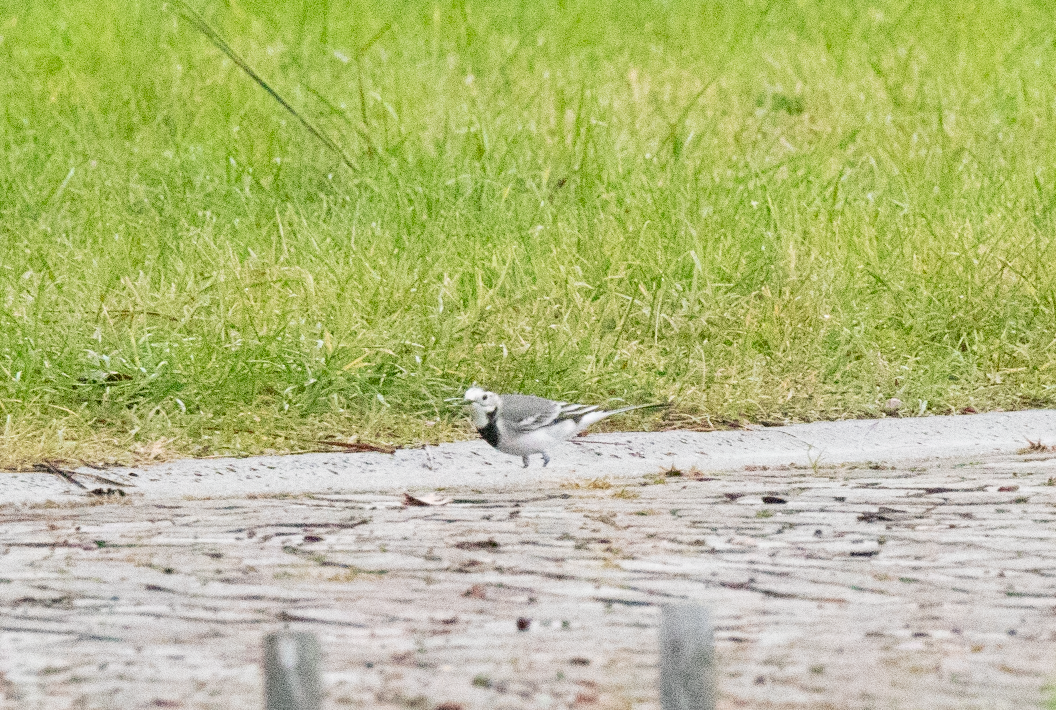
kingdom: Animalia
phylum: Chordata
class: Aves
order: Passeriformes
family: Motacillidae
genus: Motacilla
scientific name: Motacilla alba
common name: White wagtail
